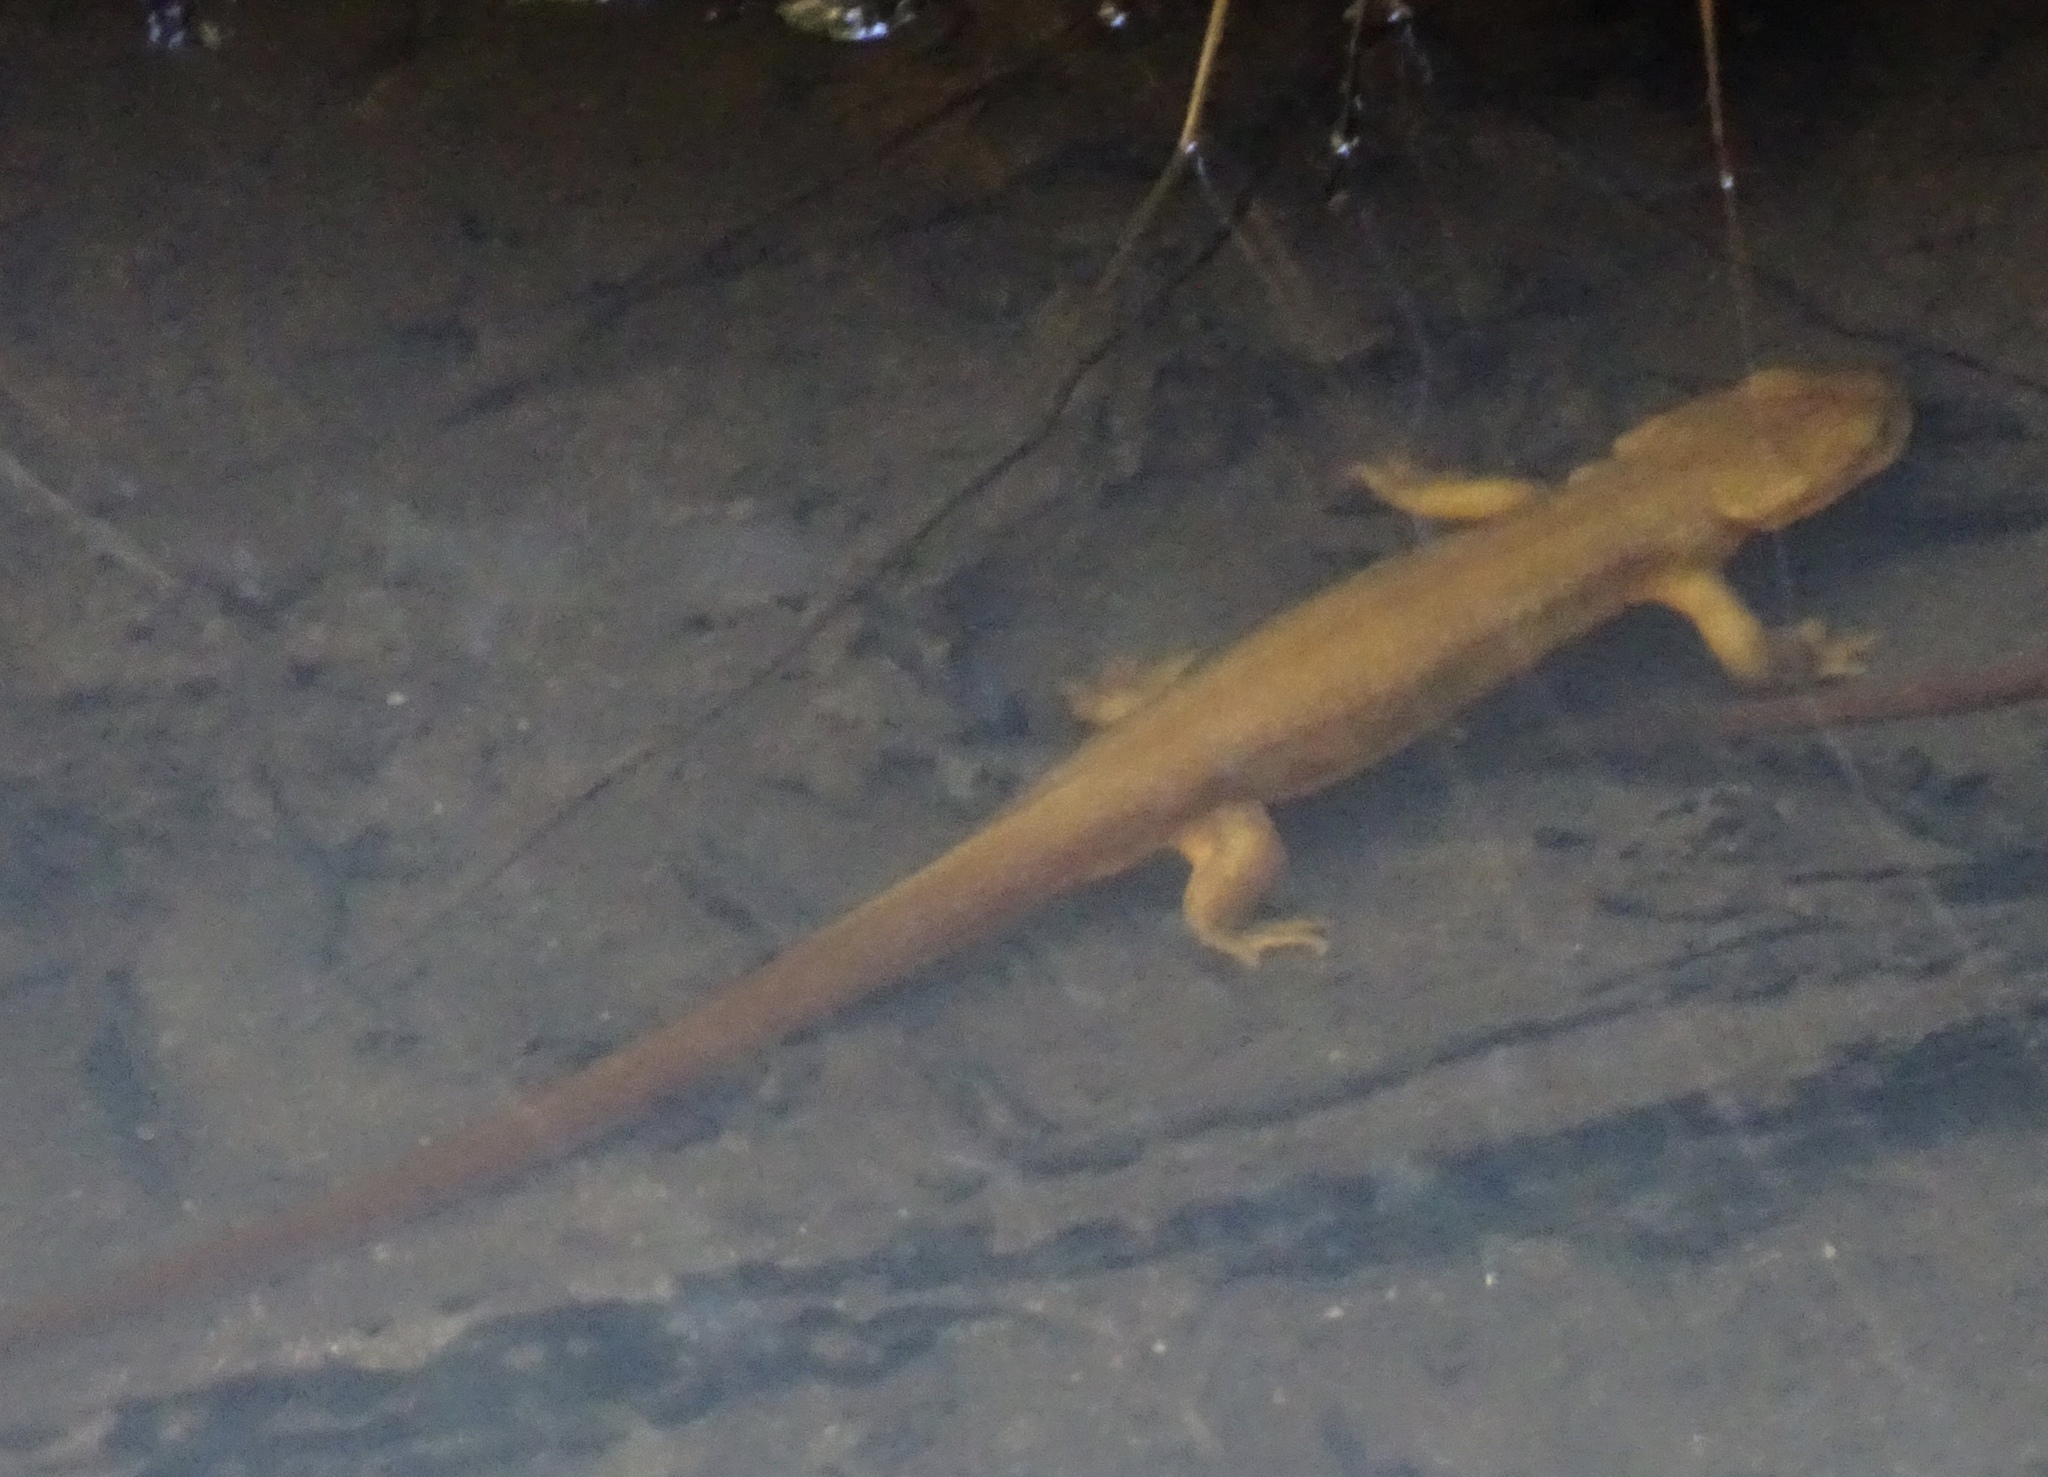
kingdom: Animalia
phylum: Chordata
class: Amphibia
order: Caudata
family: Salamandridae
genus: Taricha
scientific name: Taricha granulosa
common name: Roughskin newt
